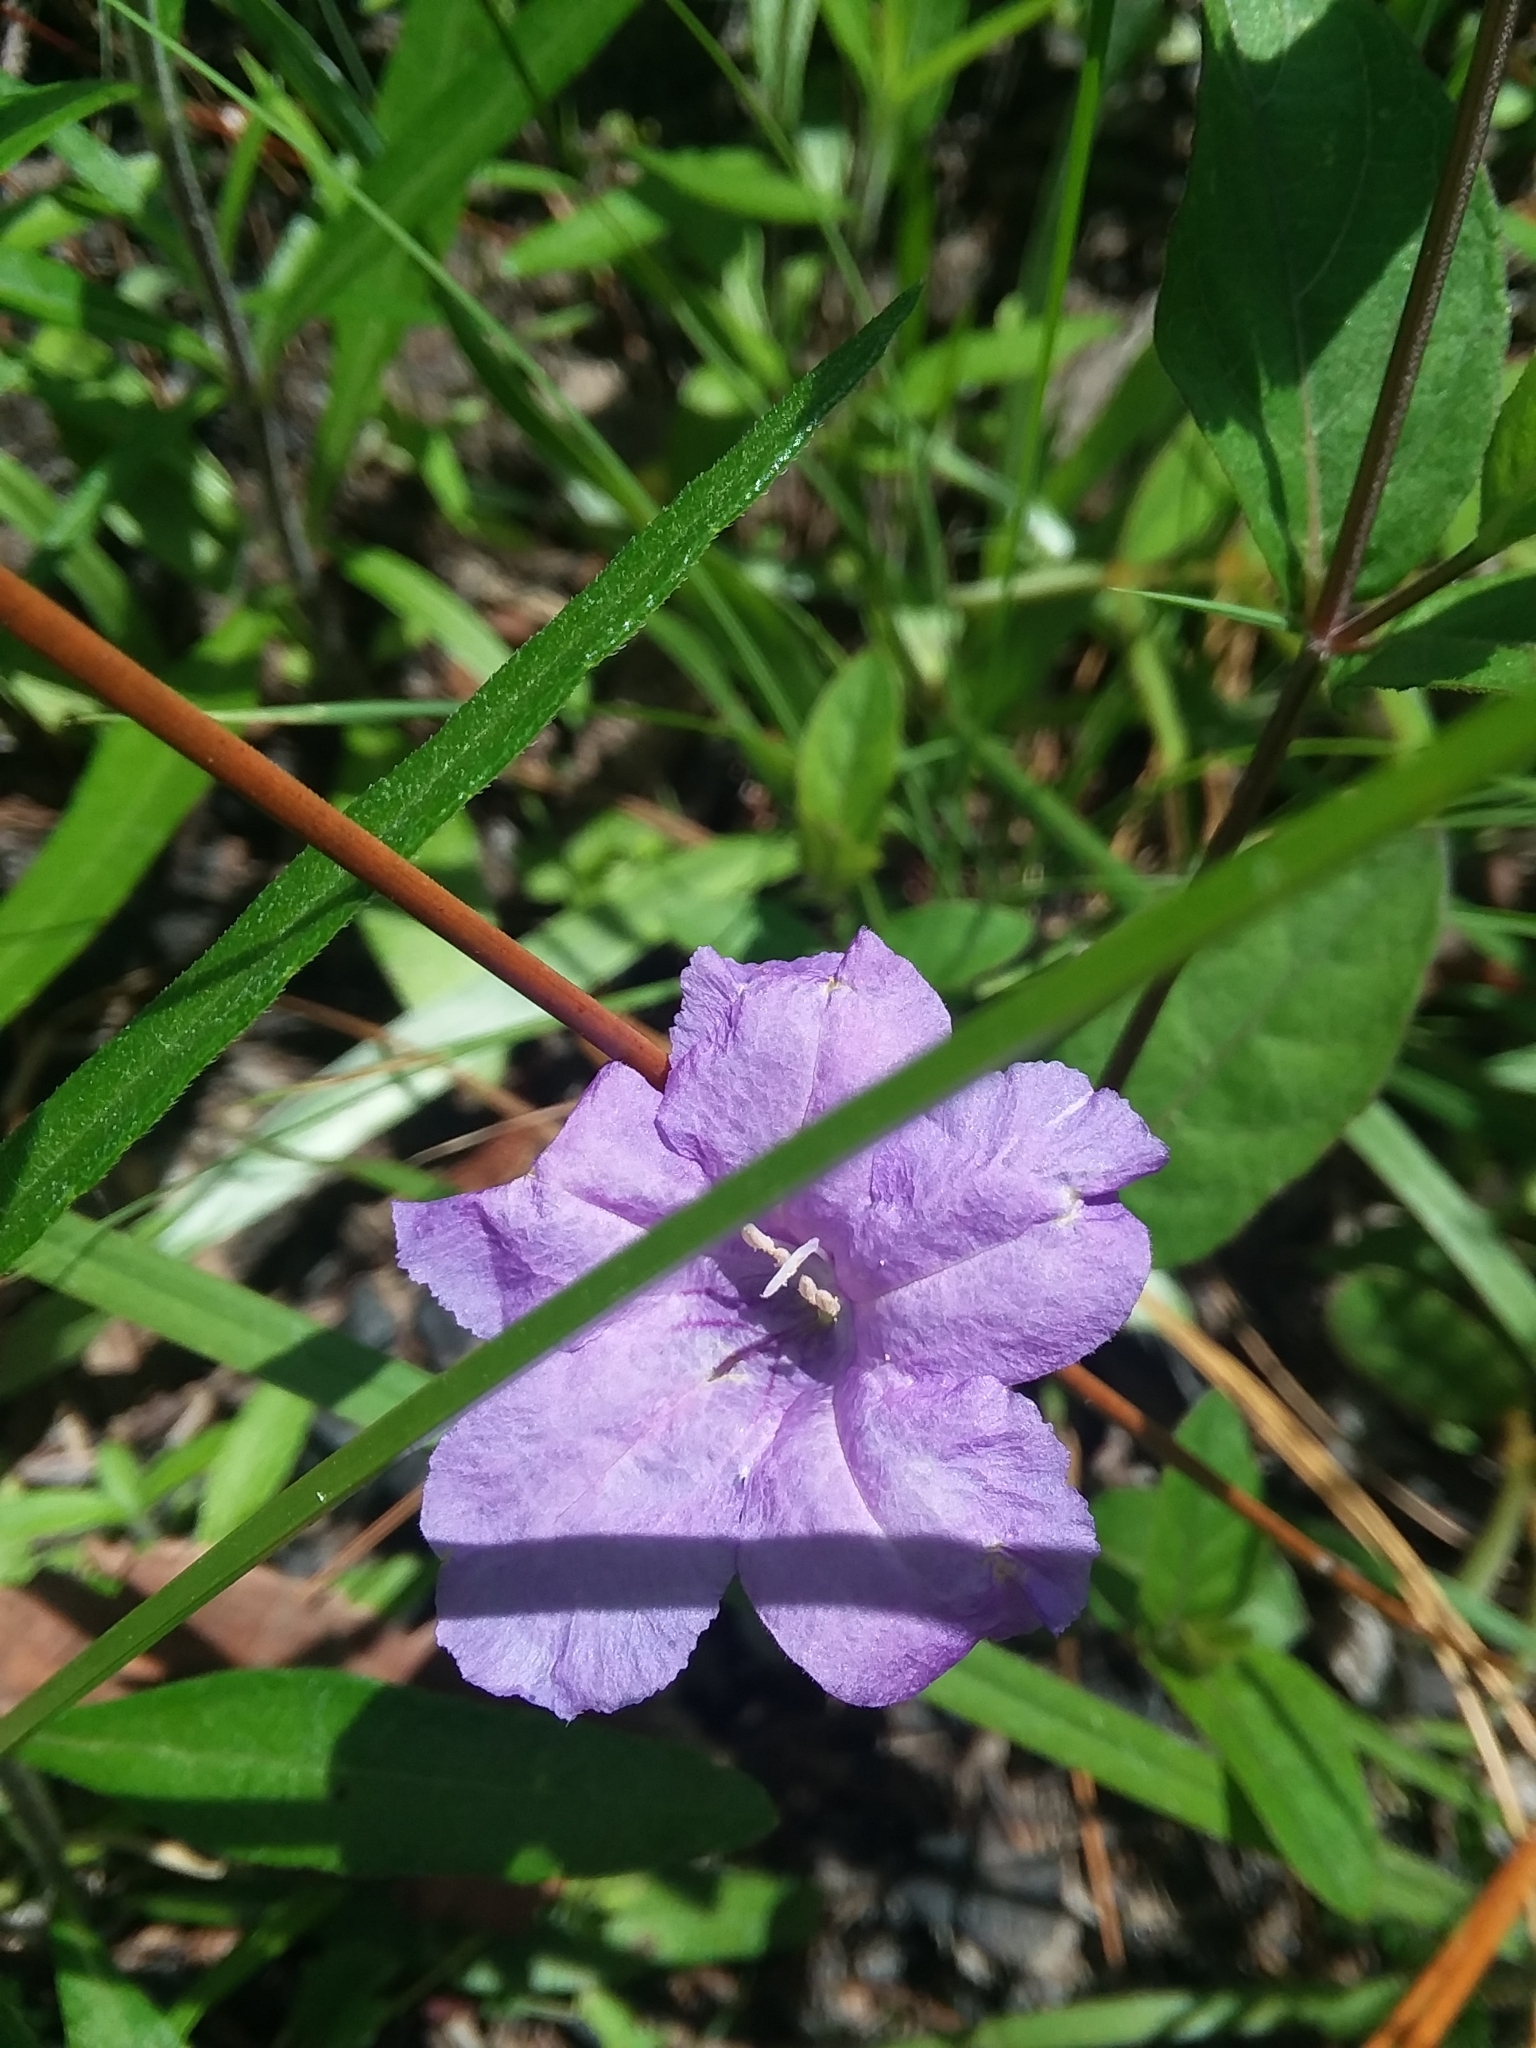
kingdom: Plantae
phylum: Tracheophyta
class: Magnoliopsida
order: Lamiales
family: Acanthaceae
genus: Ruellia
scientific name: Ruellia pedunculata
